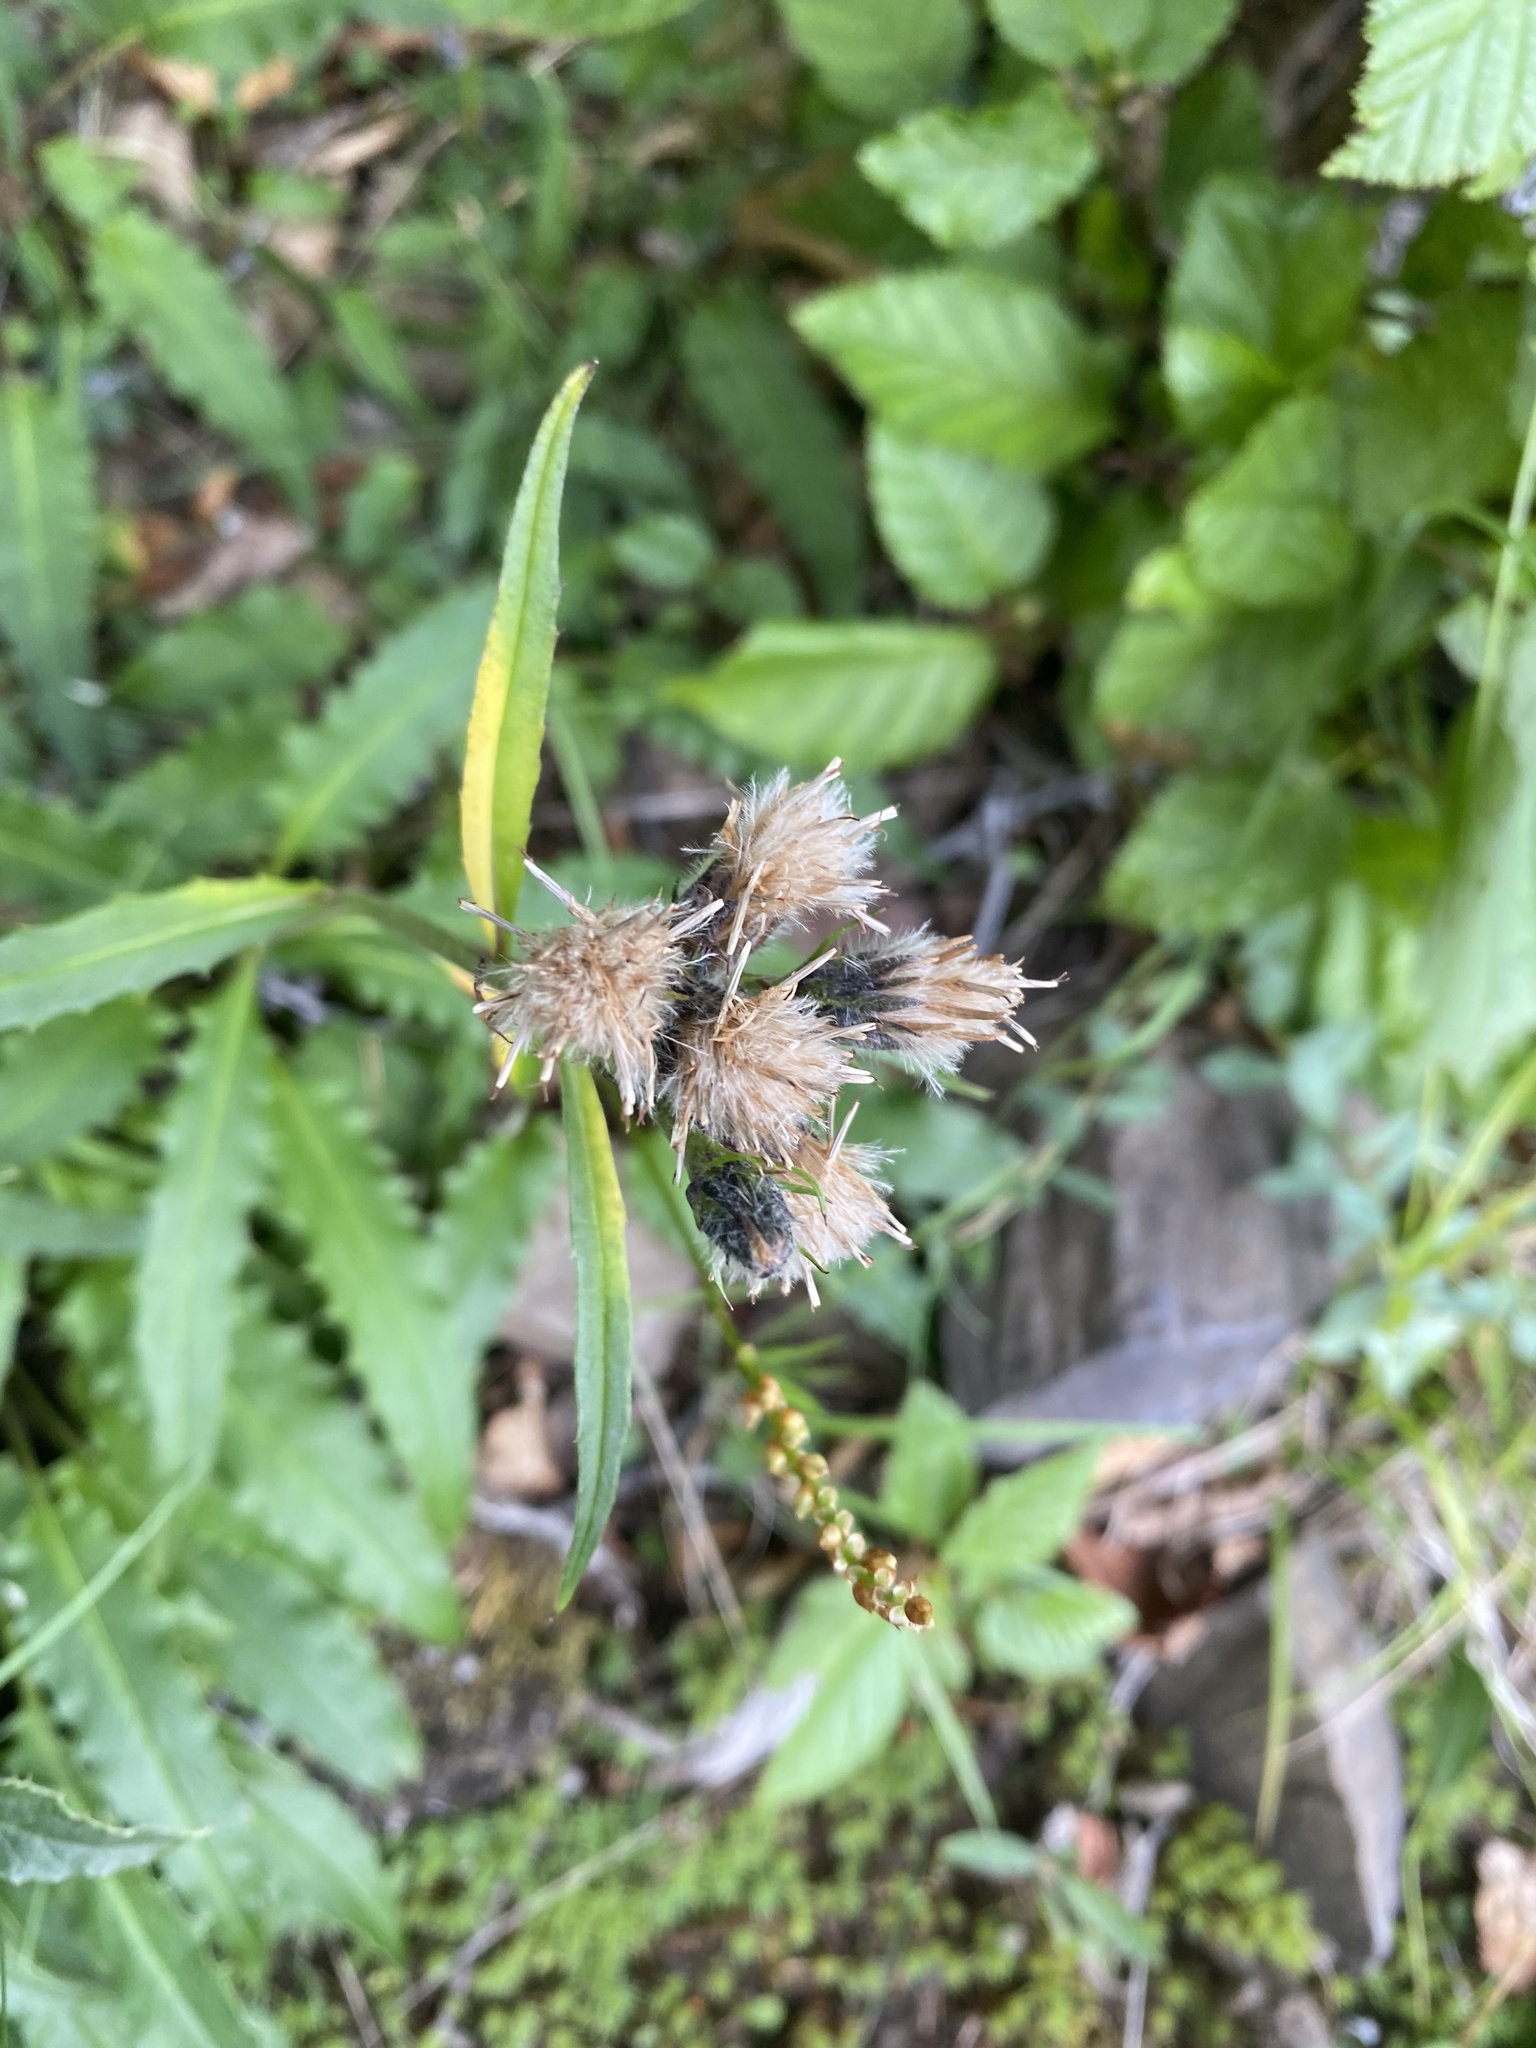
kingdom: Plantae
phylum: Tracheophyta
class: Magnoliopsida
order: Asterales
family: Asteraceae
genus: Saussurea
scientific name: Saussurea parviflora
